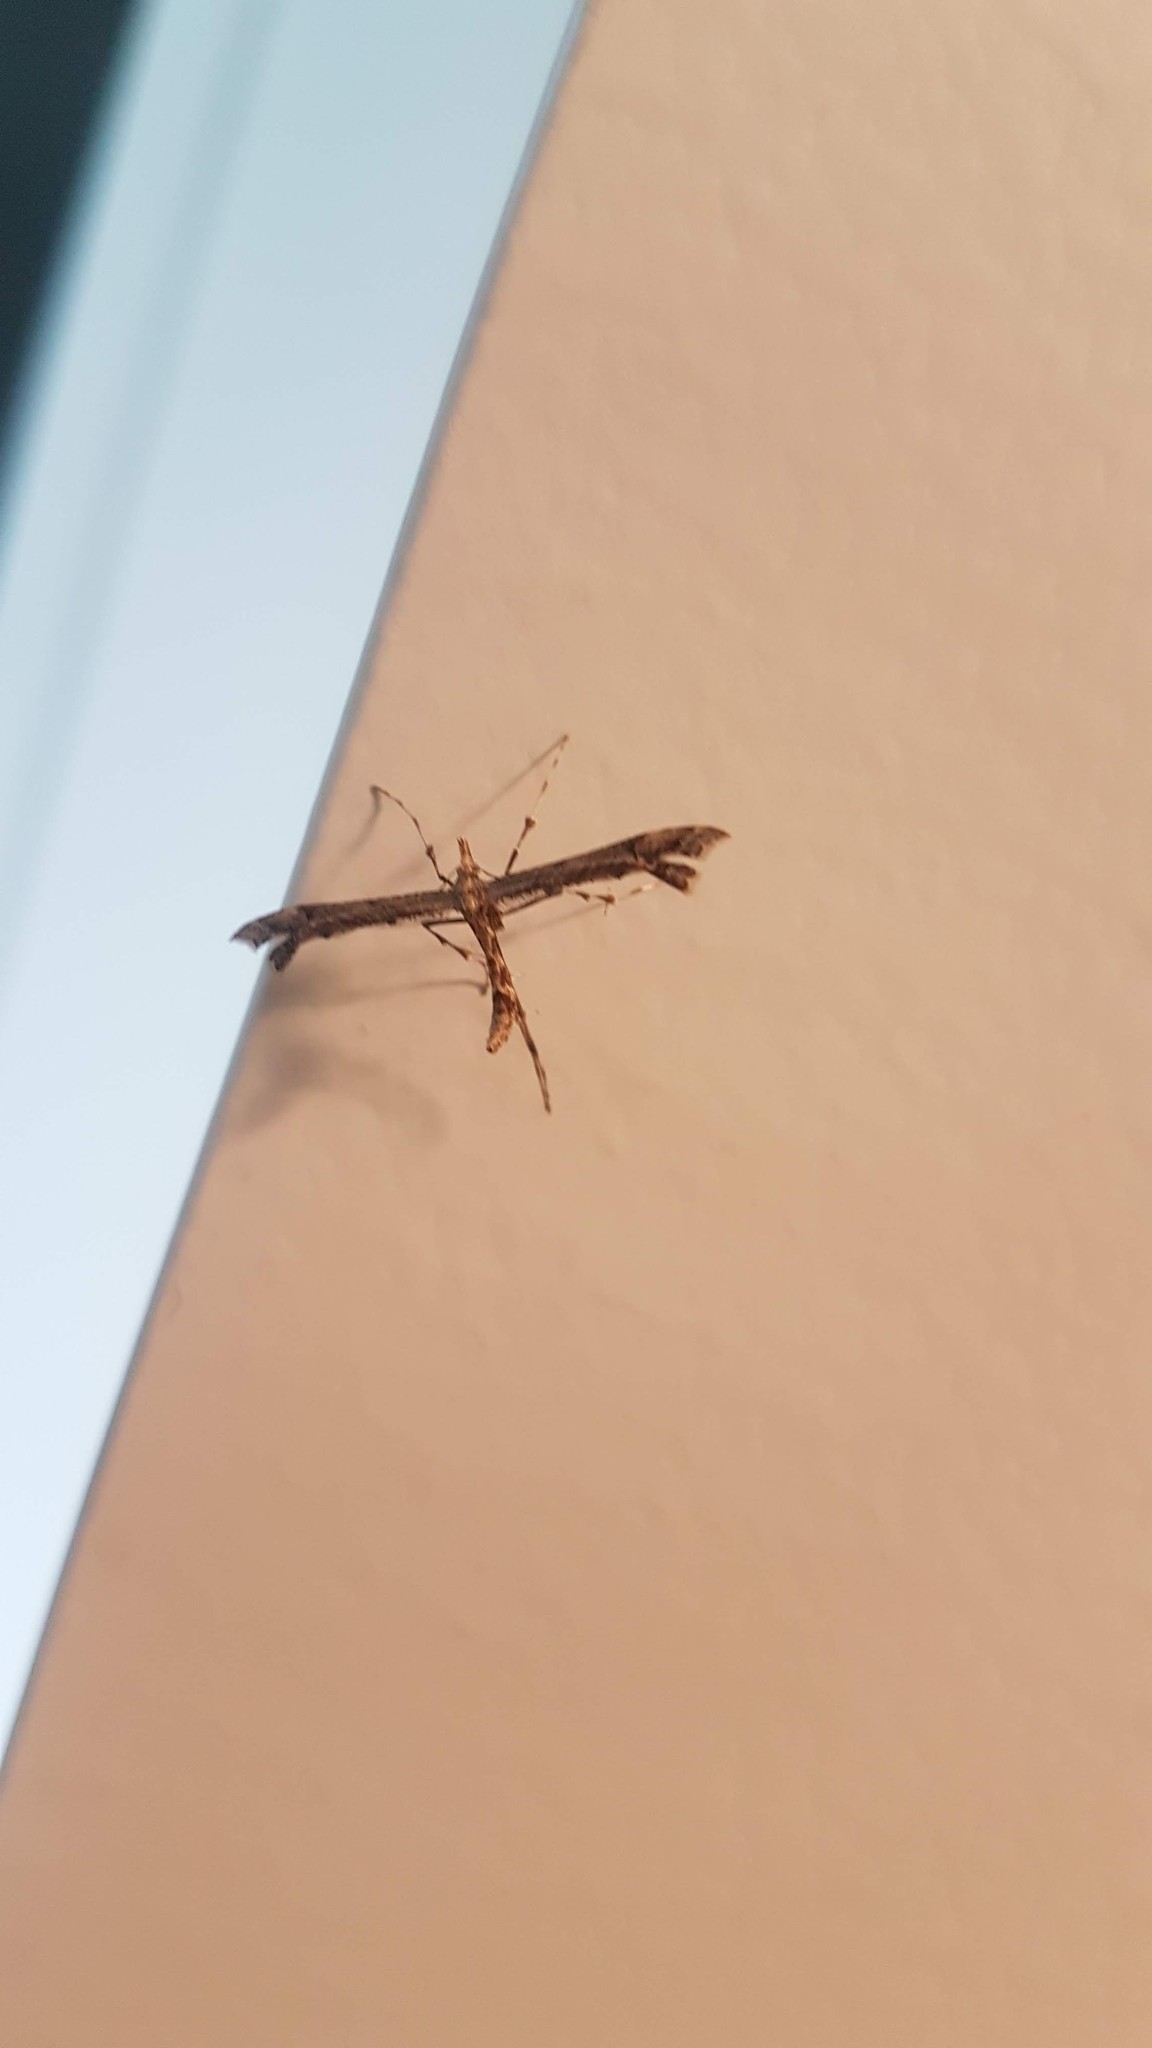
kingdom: Animalia
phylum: Arthropoda
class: Insecta
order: Lepidoptera
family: Pterophoridae
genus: Amblyptilia
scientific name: Amblyptilia repletalis
